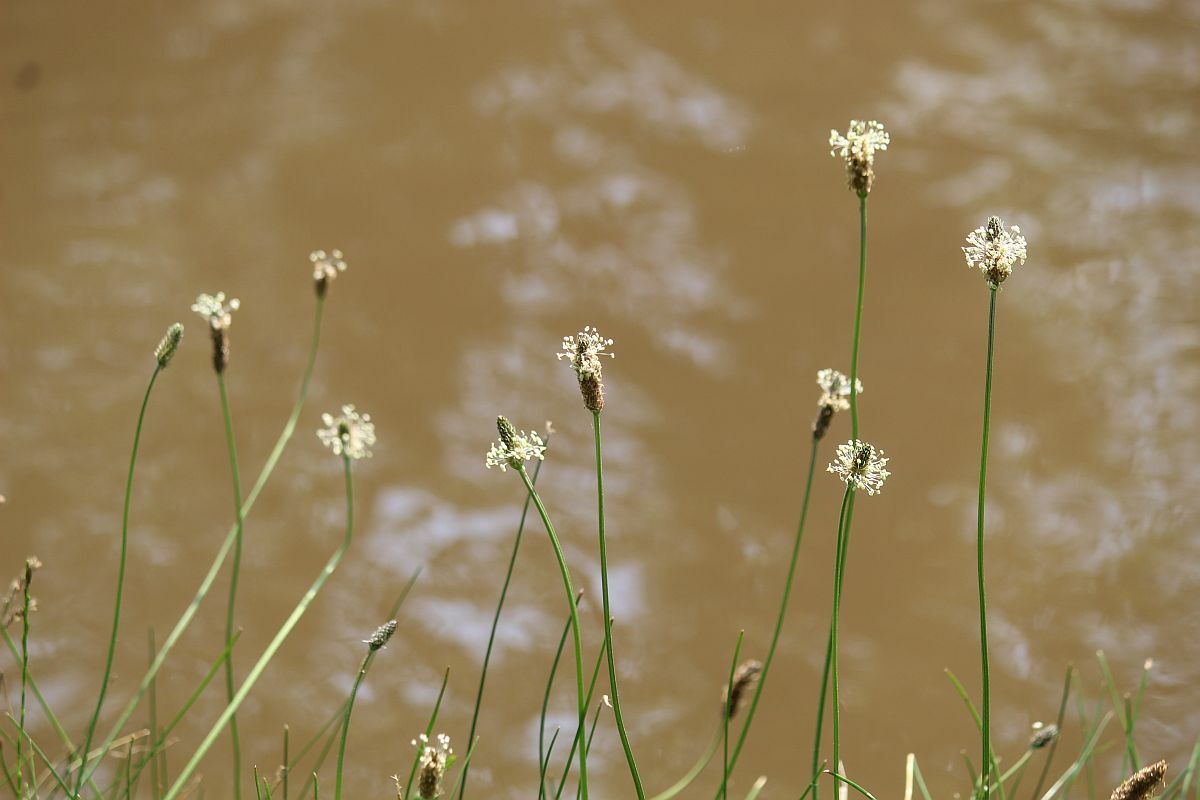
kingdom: Plantae
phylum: Tracheophyta
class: Magnoliopsida
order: Lamiales
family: Plantaginaceae
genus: Plantago
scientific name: Plantago lanceolata
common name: Ribwort plantain
